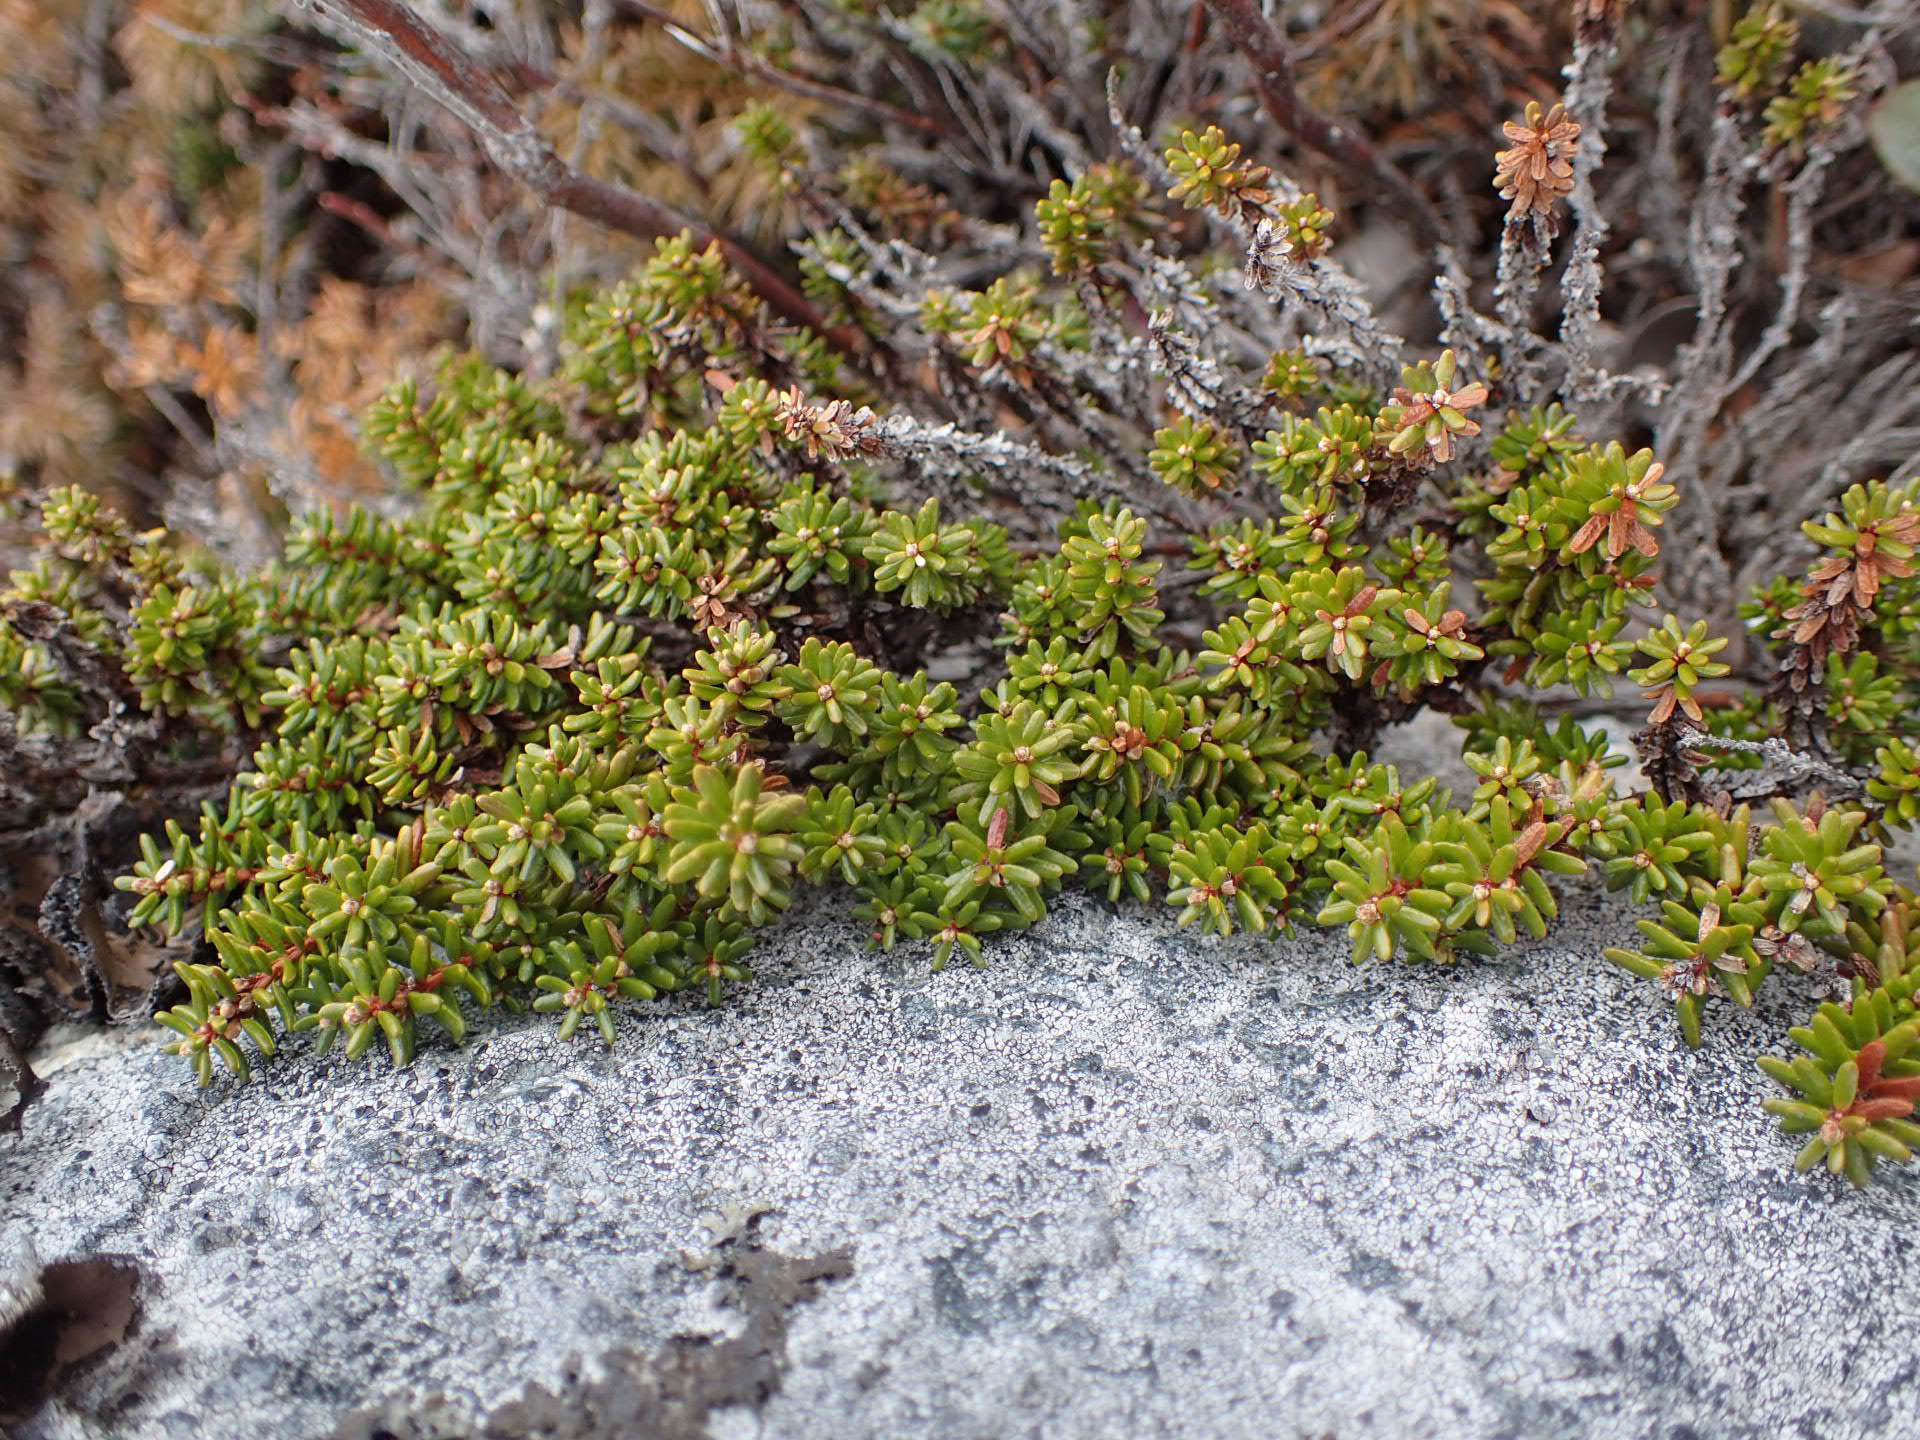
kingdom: Plantae
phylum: Tracheophyta
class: Magnoliopsida
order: Ericales
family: Ericaceae
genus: Empetrum
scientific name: Empetrum nigrum
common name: Black crowberry
